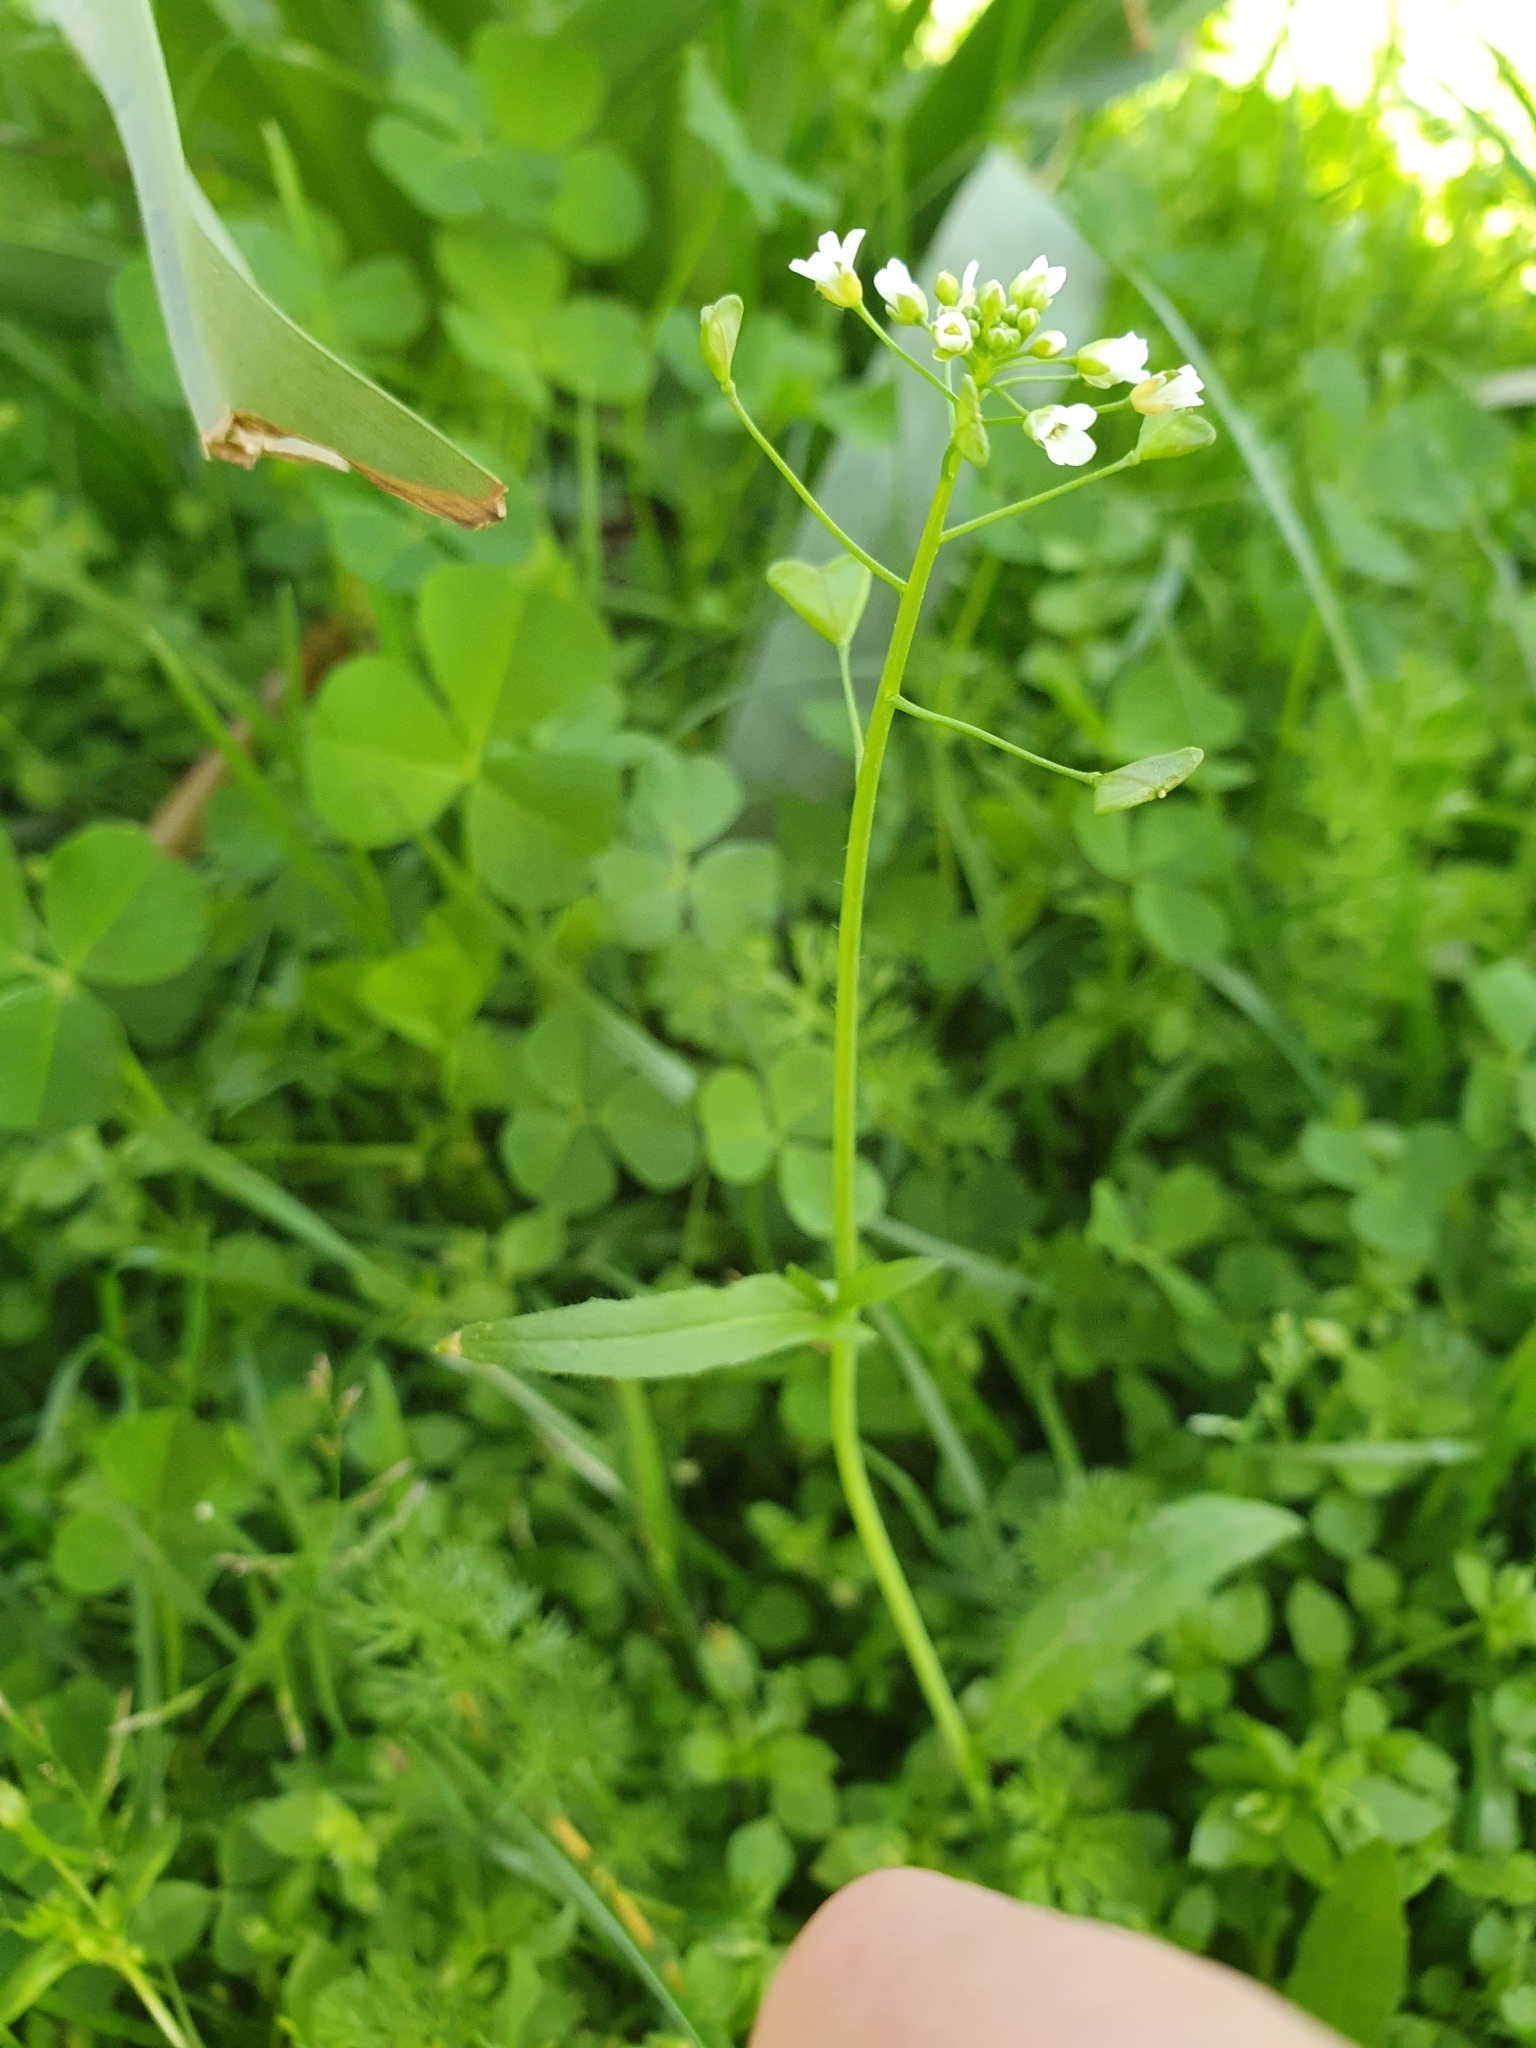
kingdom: Plantae
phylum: Tracheophyta
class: Magnoliopsida
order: Brassicales
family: Brassicaceae
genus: Capsella
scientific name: Capsella bursa-pastoris
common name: Shepherd's purse
